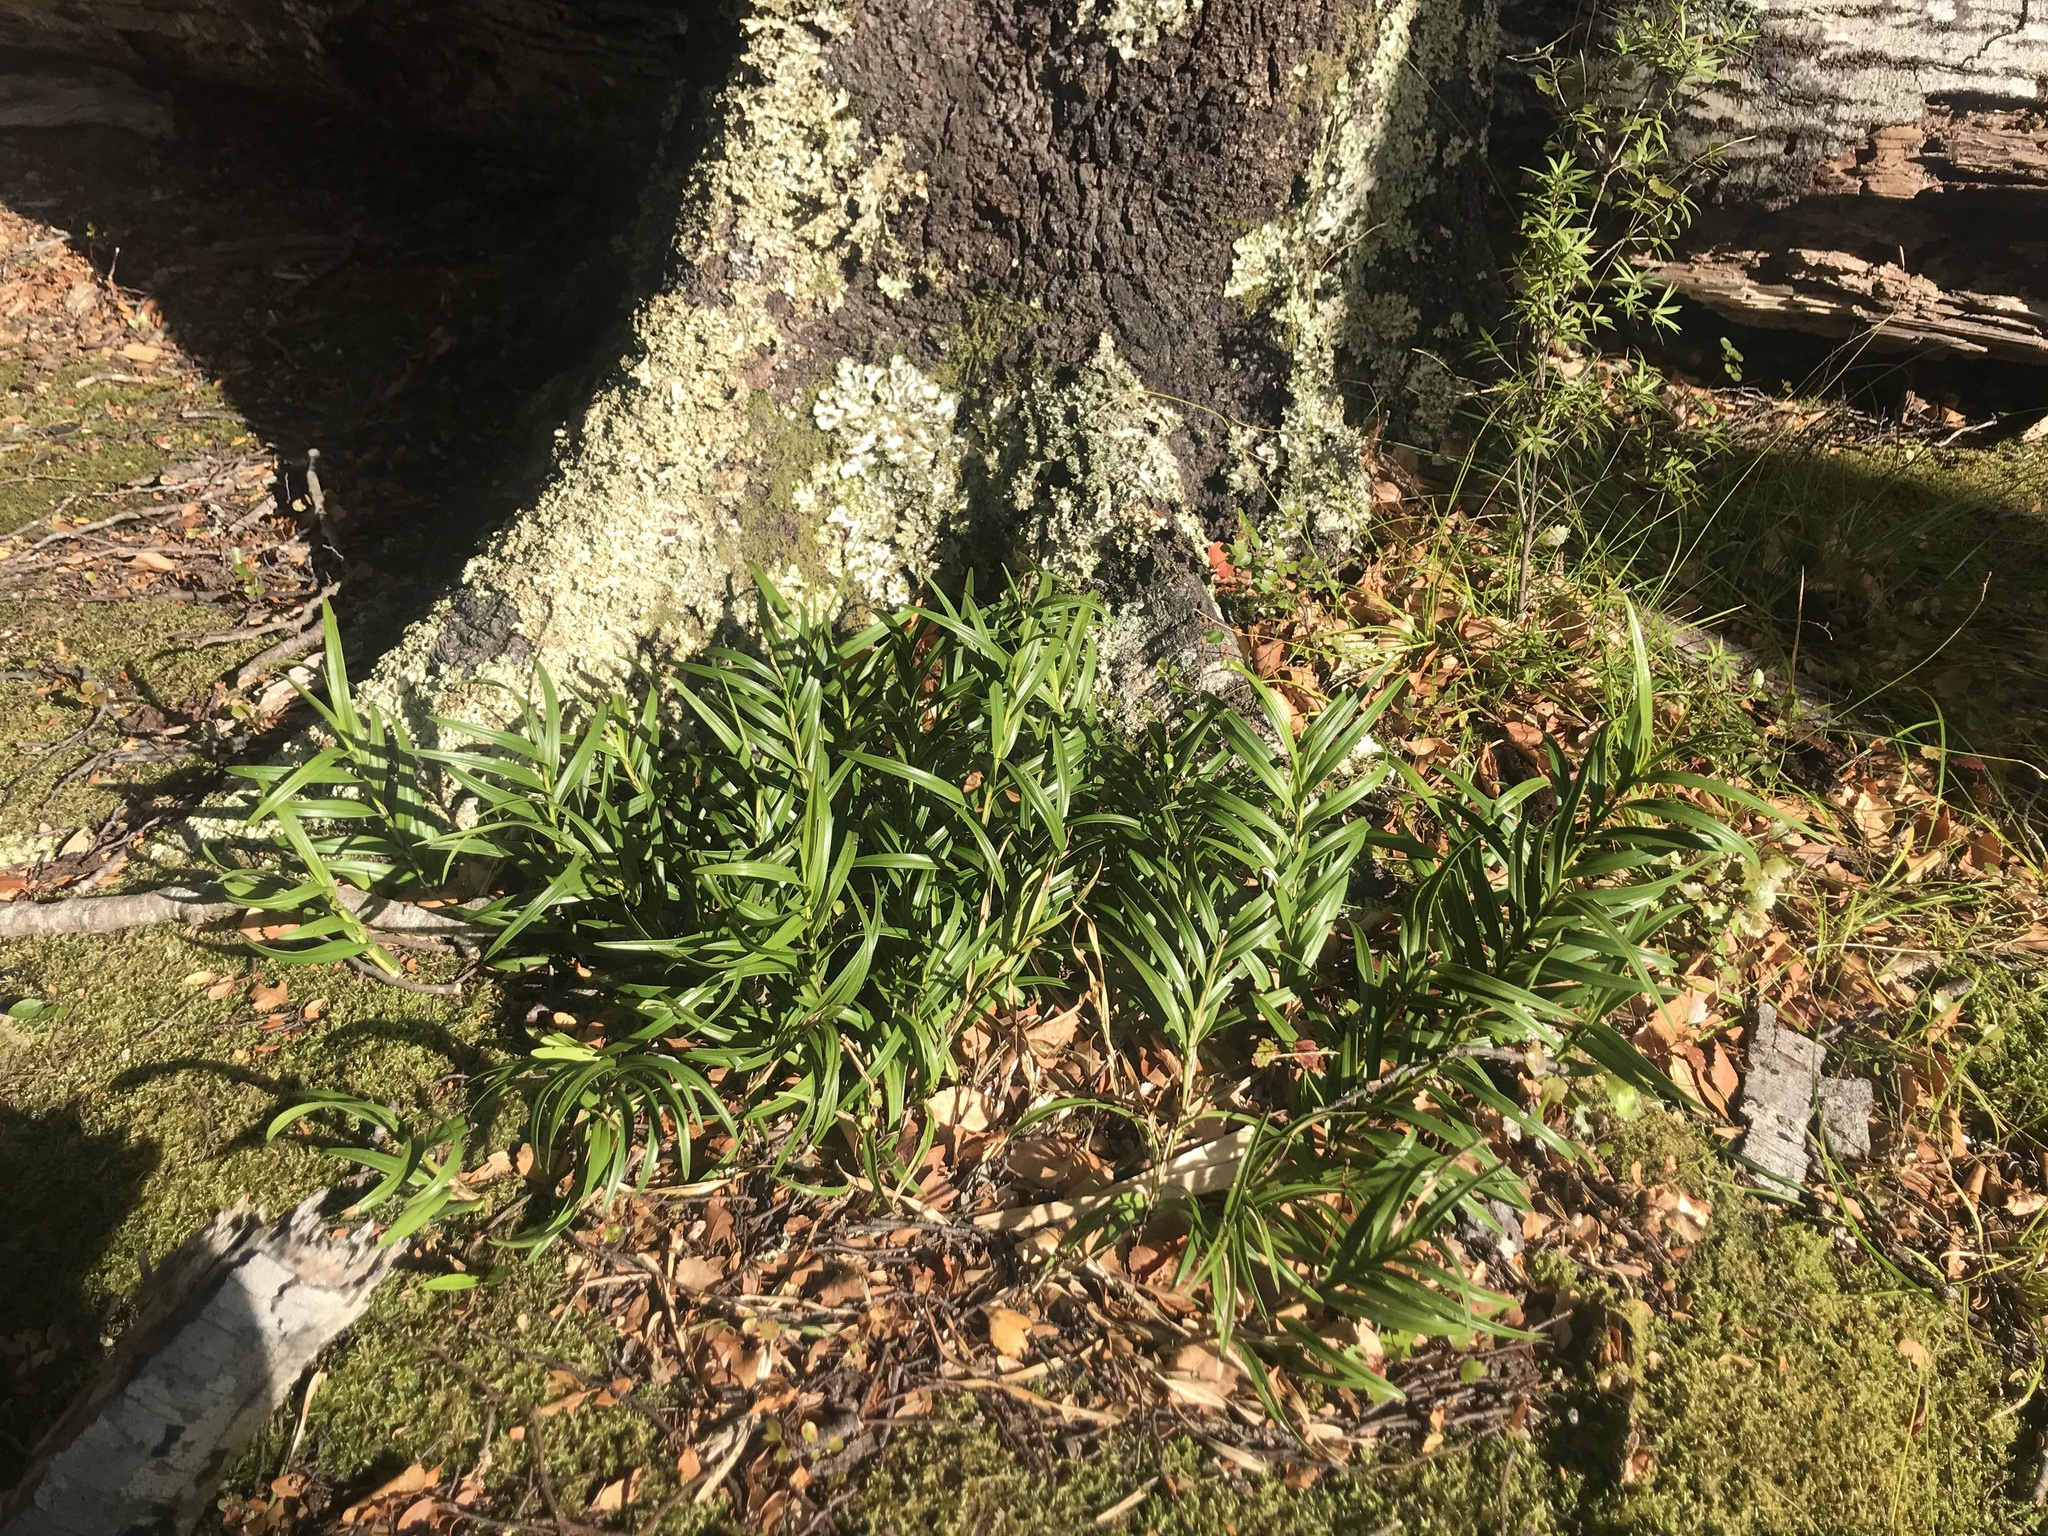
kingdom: Plantae
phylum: Tracheophyta
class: Liliopsida
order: Asparagales
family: Orchidaceae
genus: Earina
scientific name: Earina autumnalis
